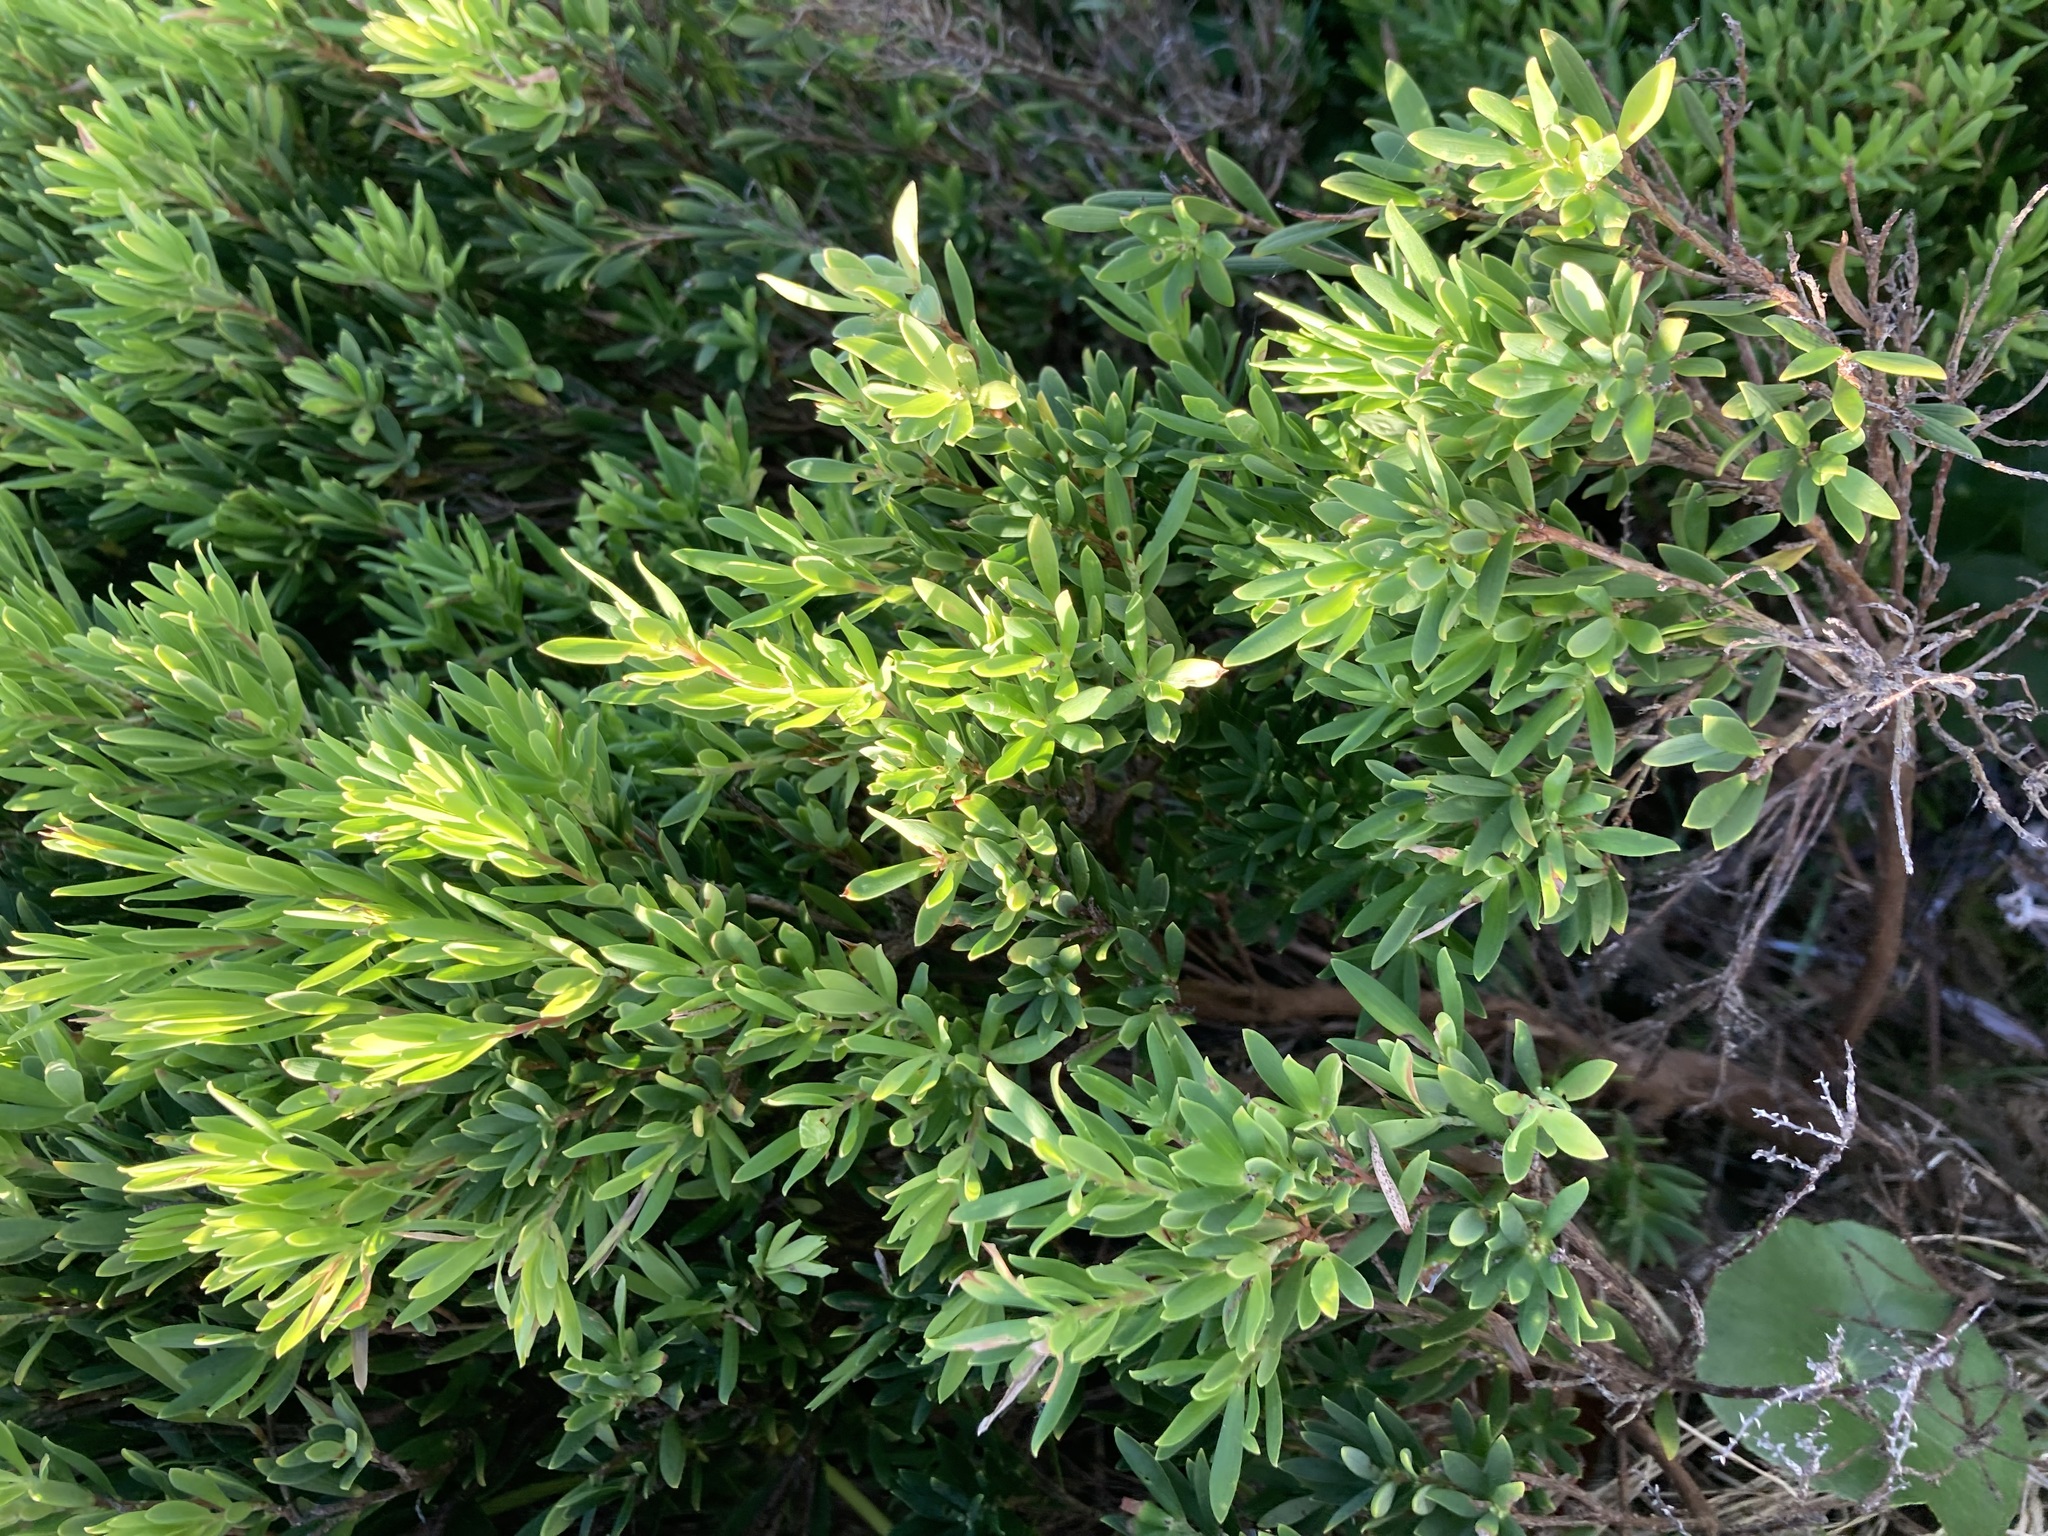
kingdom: Plantae
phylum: Tracheophyta
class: Magnoliopsida
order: Ericales
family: Ericaceae
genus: Leptecophylla
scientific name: Leptecophylla parvifolia
